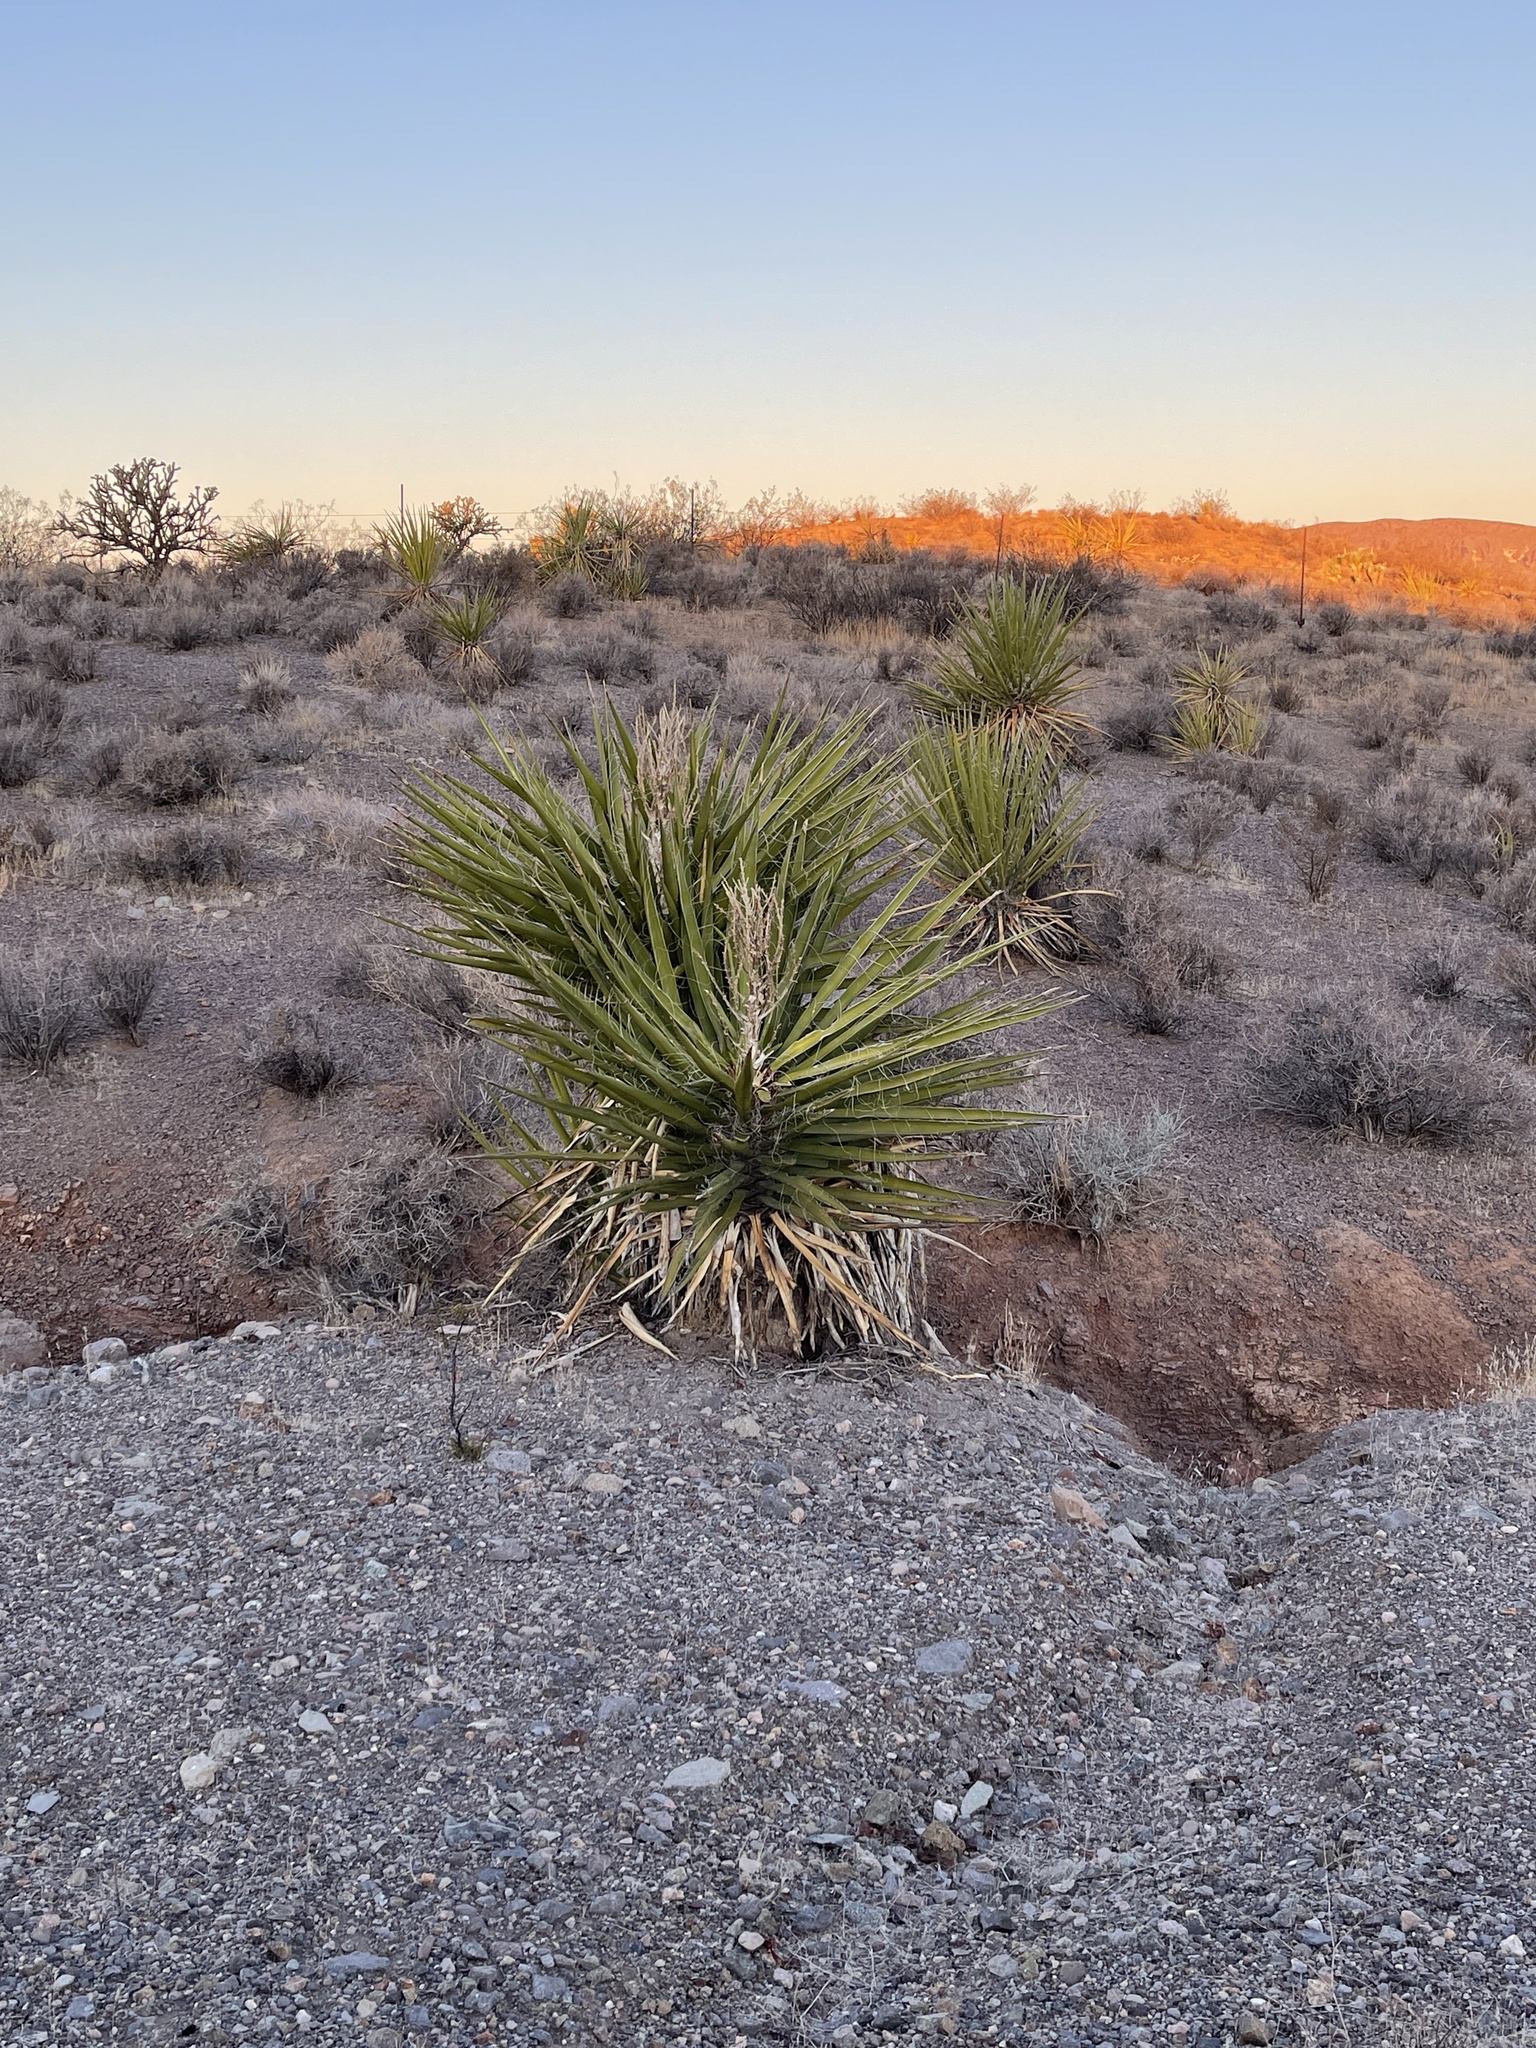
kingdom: Plantae
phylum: Tracheophyta
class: Liliopsida
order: Asparagales
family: Asparagaceae
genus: Yucca
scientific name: Yucca schidigera
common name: Mojave yucca
